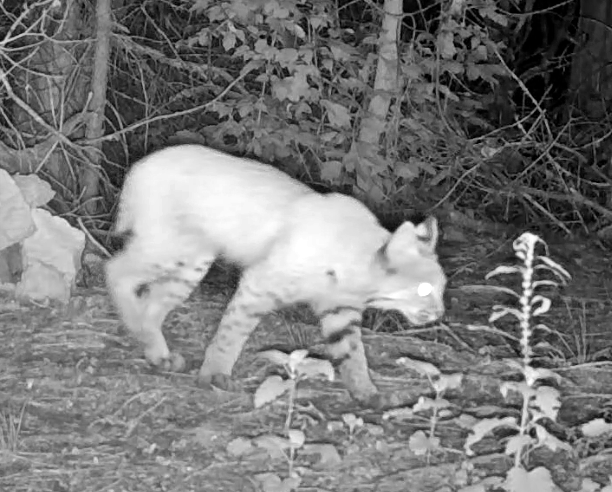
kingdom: Animalia
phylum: Chordata
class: Mammalia
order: Carnivora
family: Felidae
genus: Lynx
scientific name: Lynx rufus
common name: Bobcat
